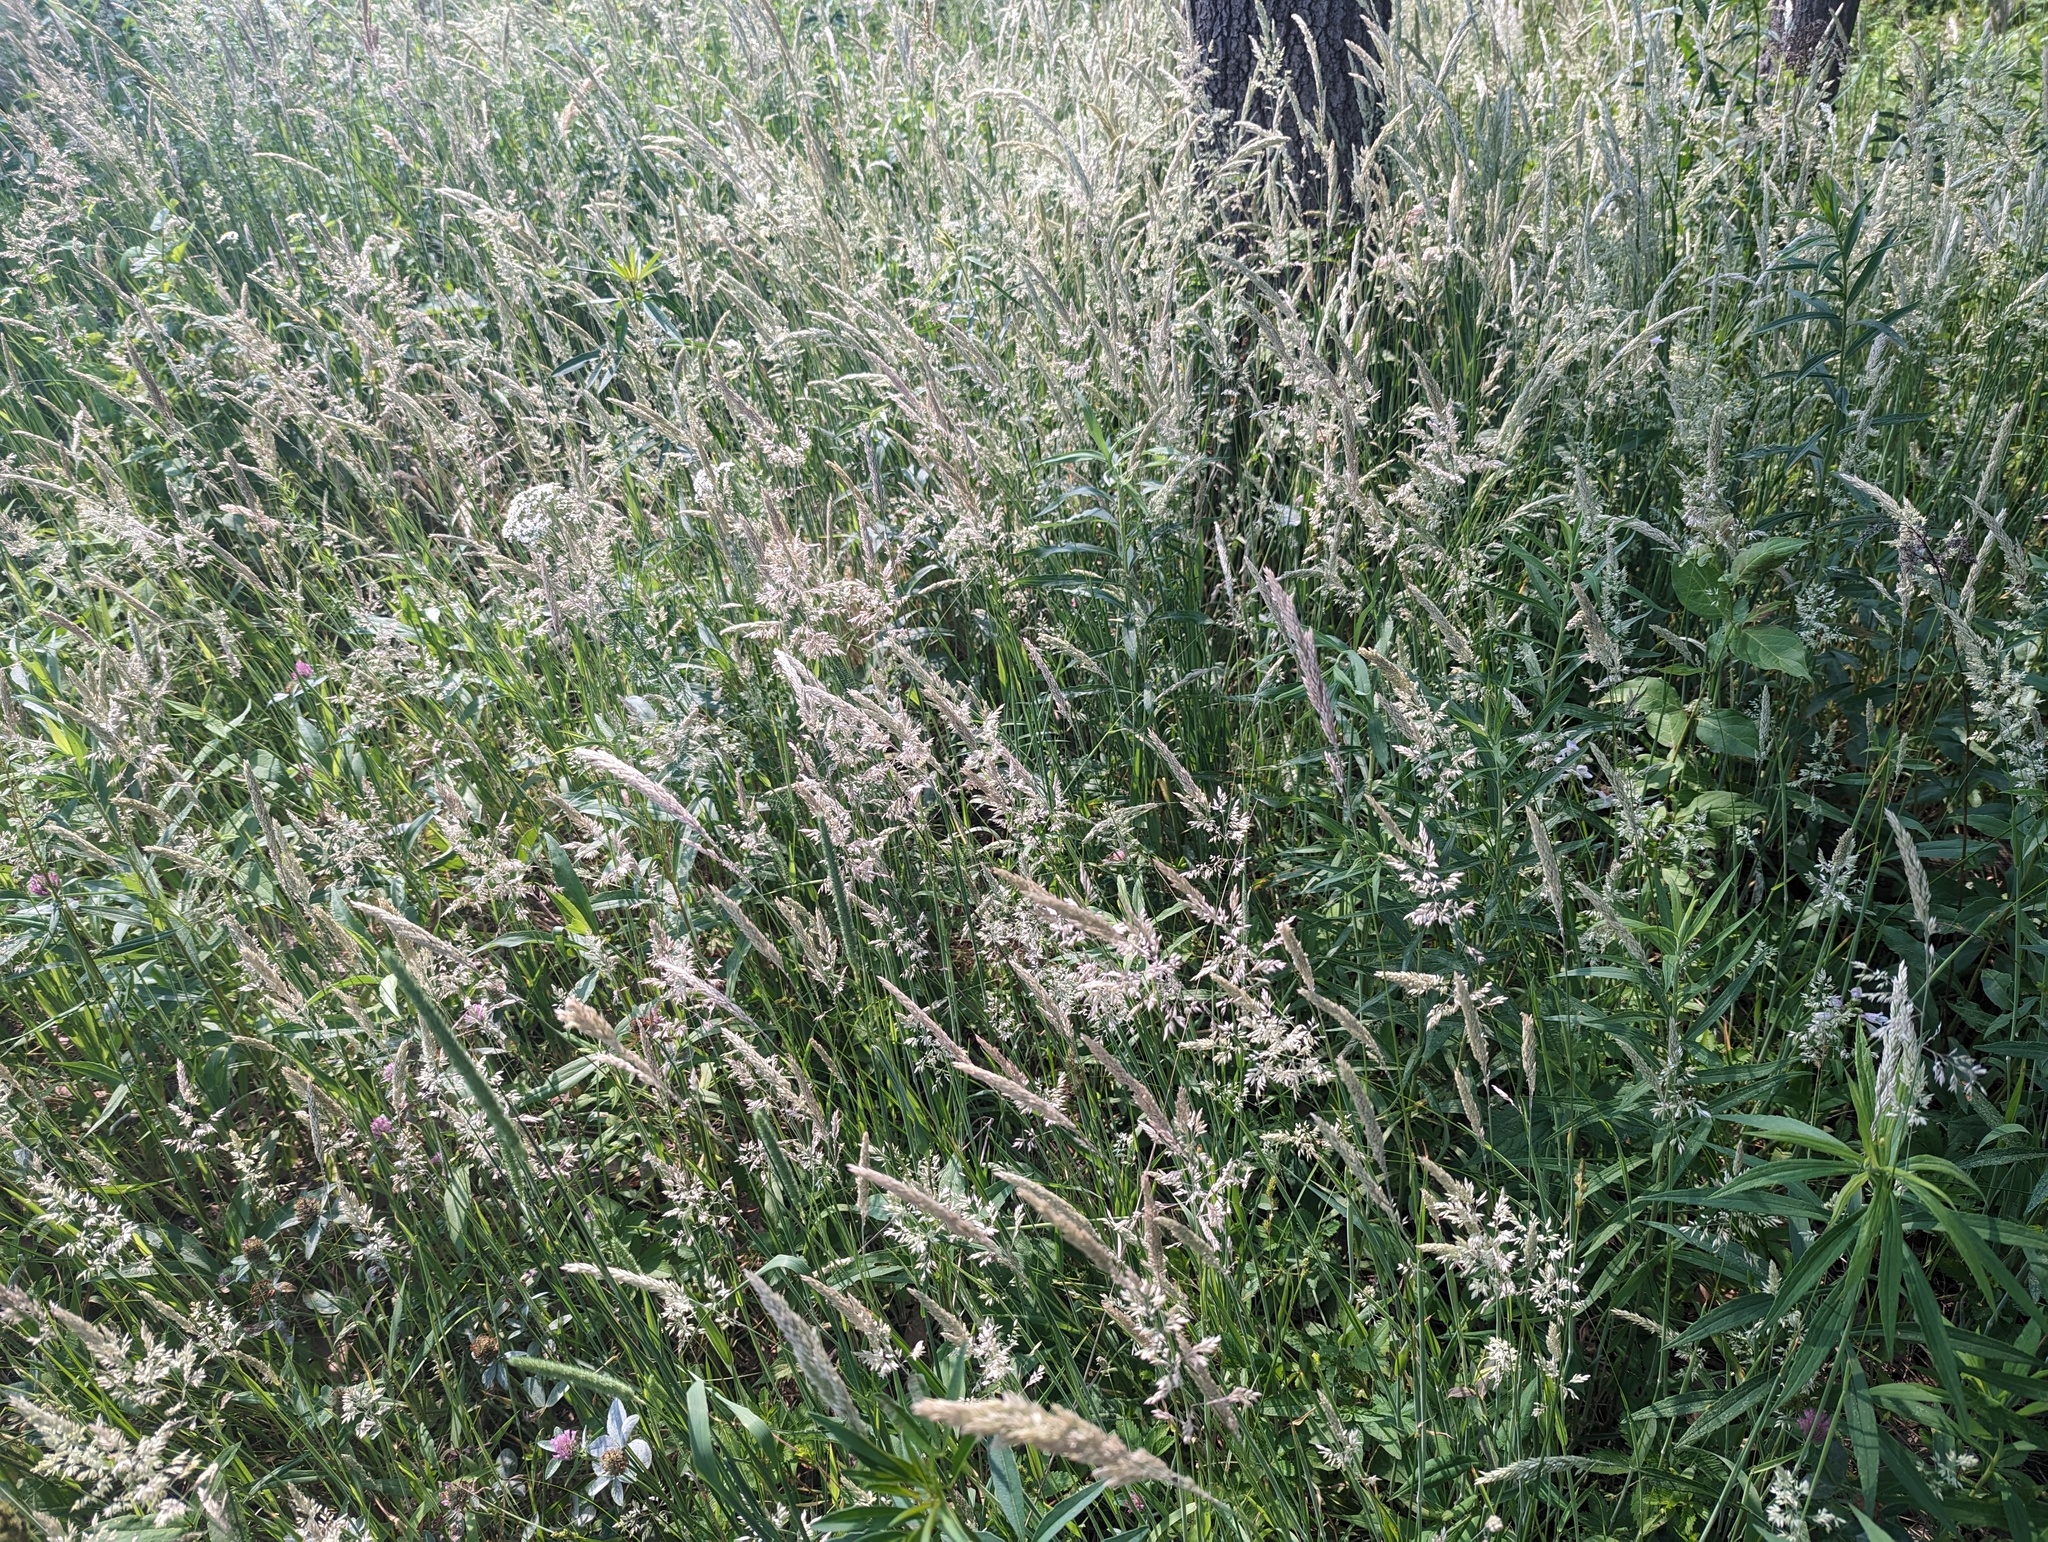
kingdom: Plantae
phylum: Tracheophyta
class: Liliopsida
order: Poales
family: Poaceae
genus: Holcus
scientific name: Holcus lanatus
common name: Yorkshire-fog
